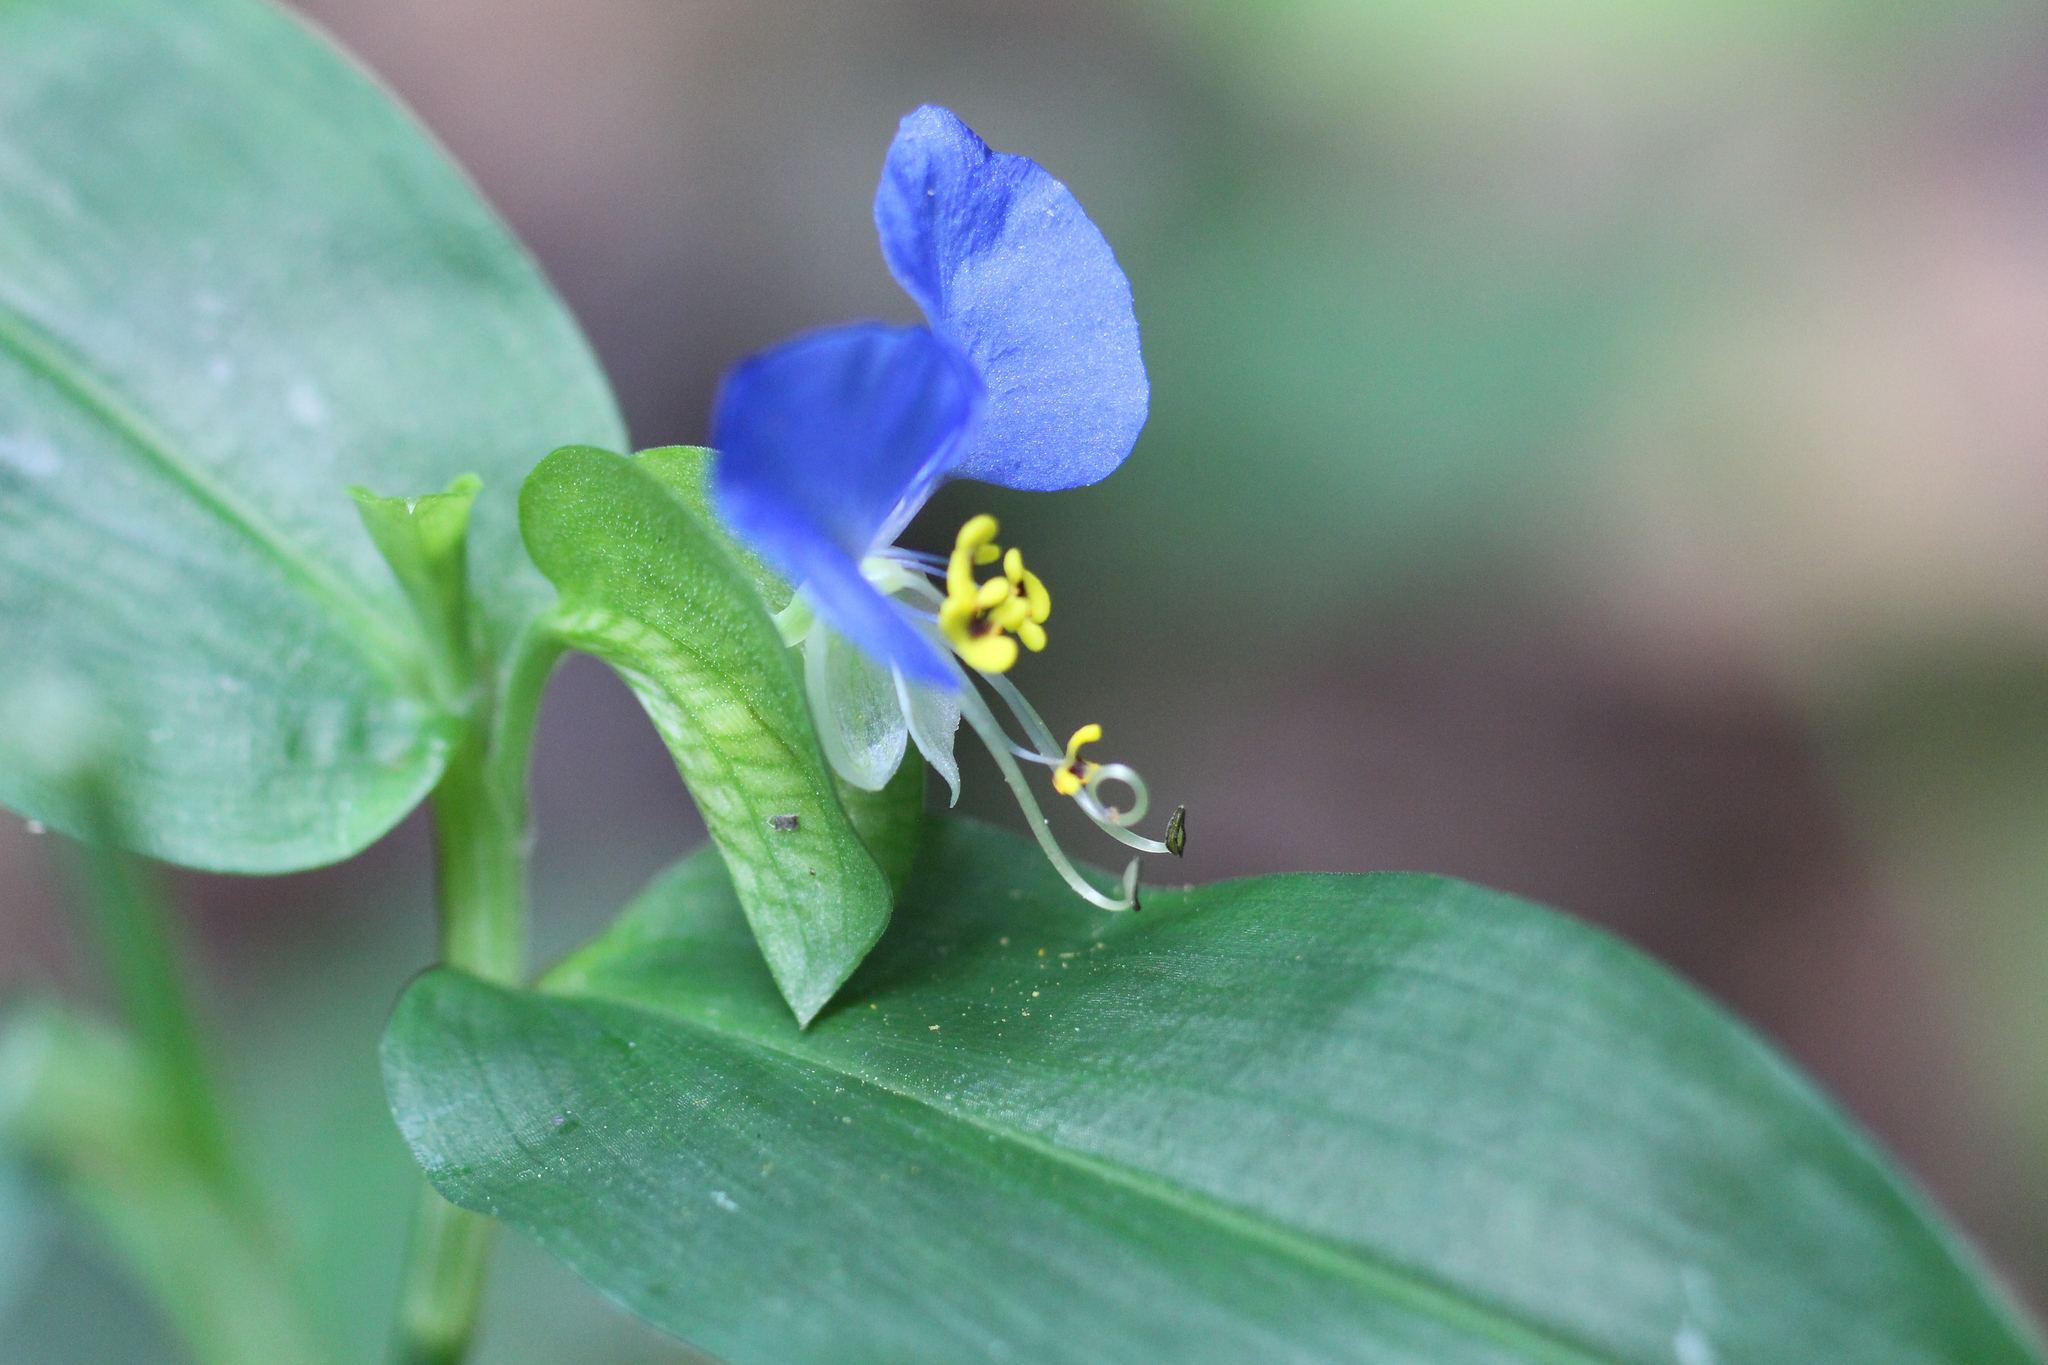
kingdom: Plantae
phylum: Tracheophyta
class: Liliopsida
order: Commelinales
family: Commelinaceae
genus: Commelina
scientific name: Commelina communis
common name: Asiatic dayflower
